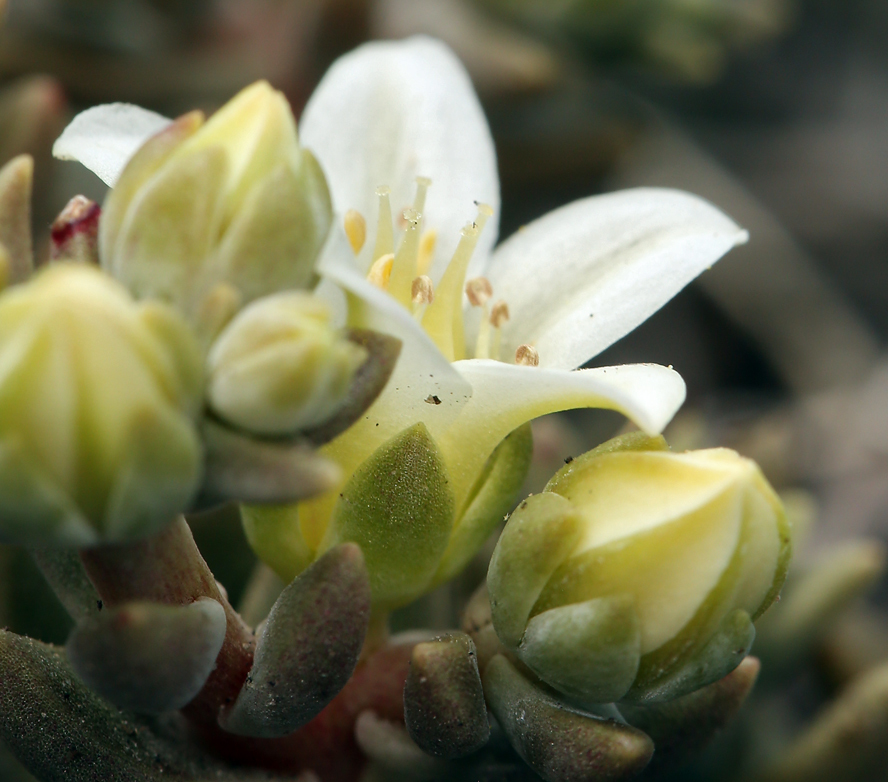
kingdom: Plantae
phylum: Tracheophyta
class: Magnoliopsida
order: Saxifragales
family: Crassulaceae
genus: Dudleya
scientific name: Dudleya nesiotica
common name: Santa cruz island dudleya
